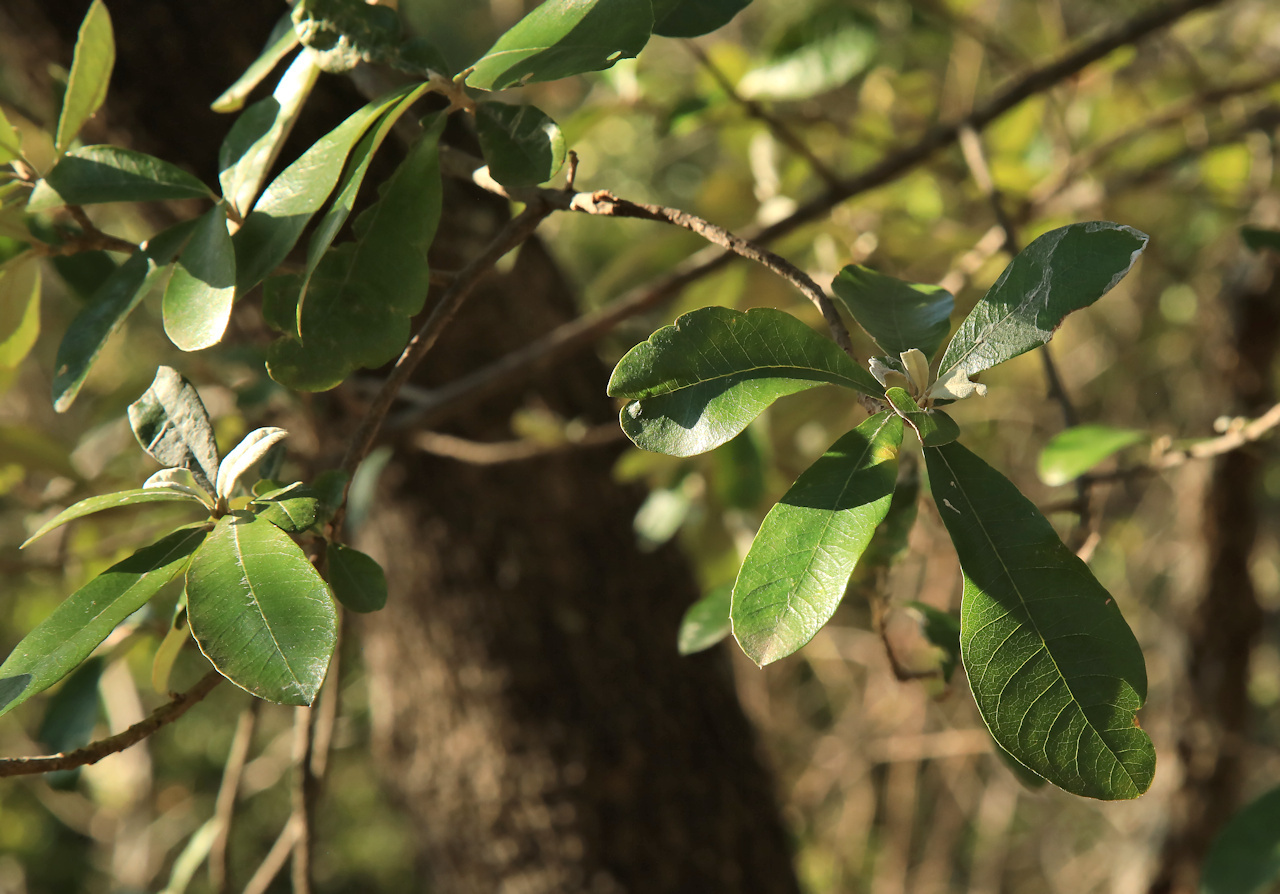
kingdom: Plantae
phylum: Tracheophyta
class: Magnoliopsida
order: Asterales
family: Asteraceae
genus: Brachylaena
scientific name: Brachylaena huillensis
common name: Silver-oak
